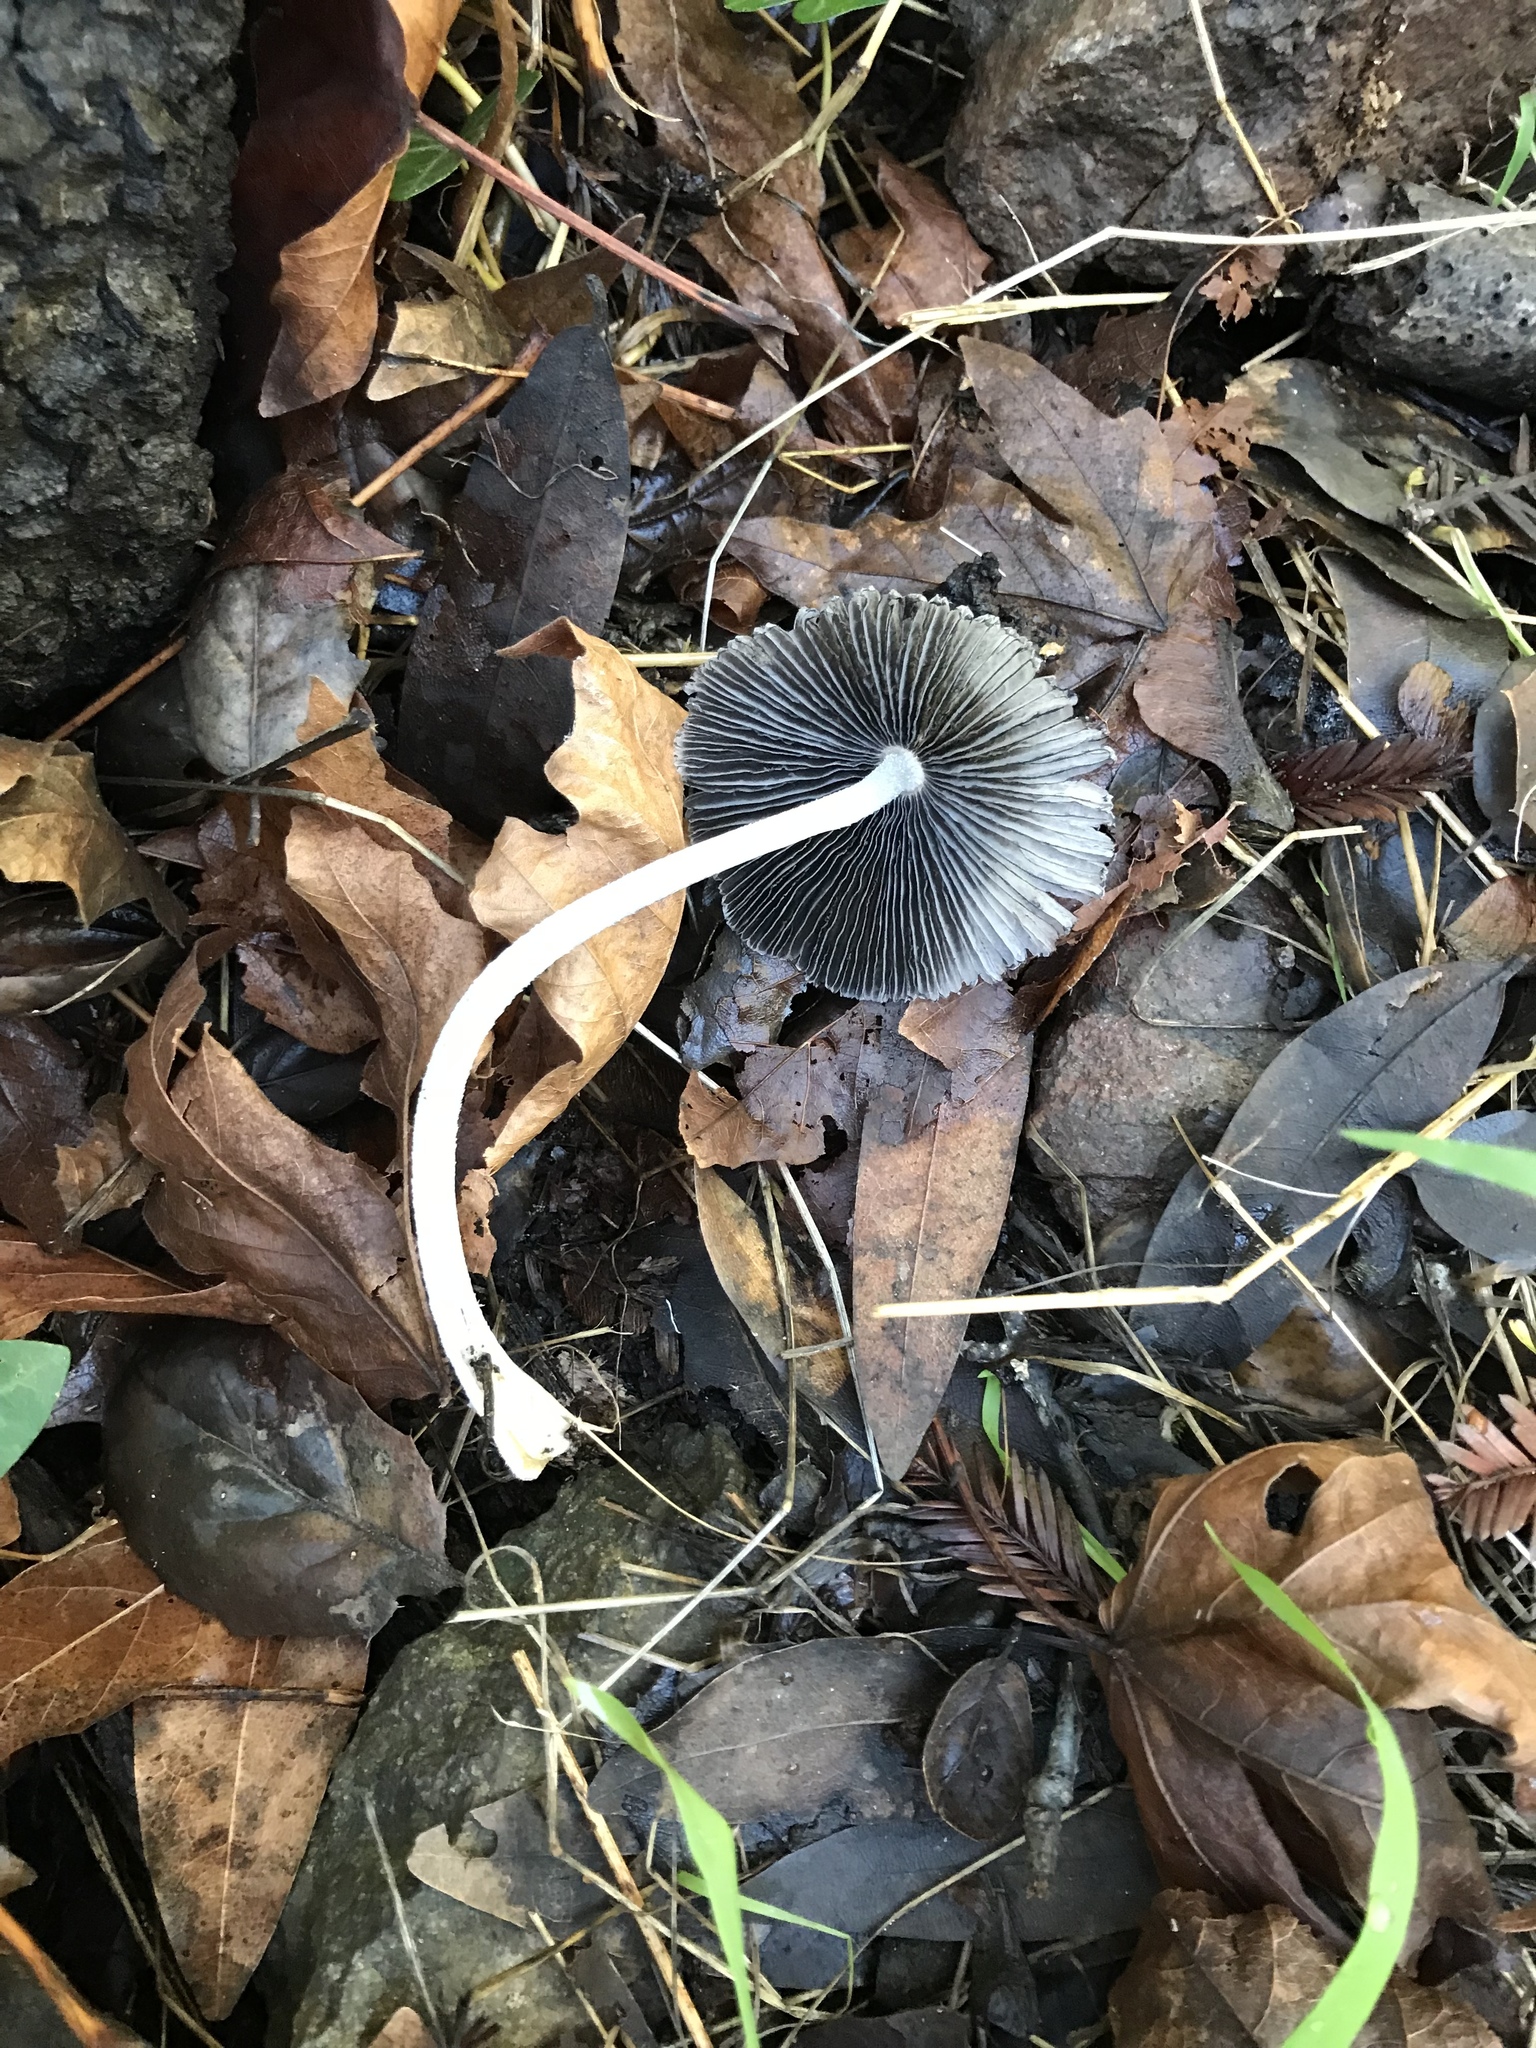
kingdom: Fungi
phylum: Basidiomycota
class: Agaricomycetes
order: Agaricales
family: Psathyrellaceae
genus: Coprinopsis
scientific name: Coprinopsis lagopus
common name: Hare'sfoot inkcap
